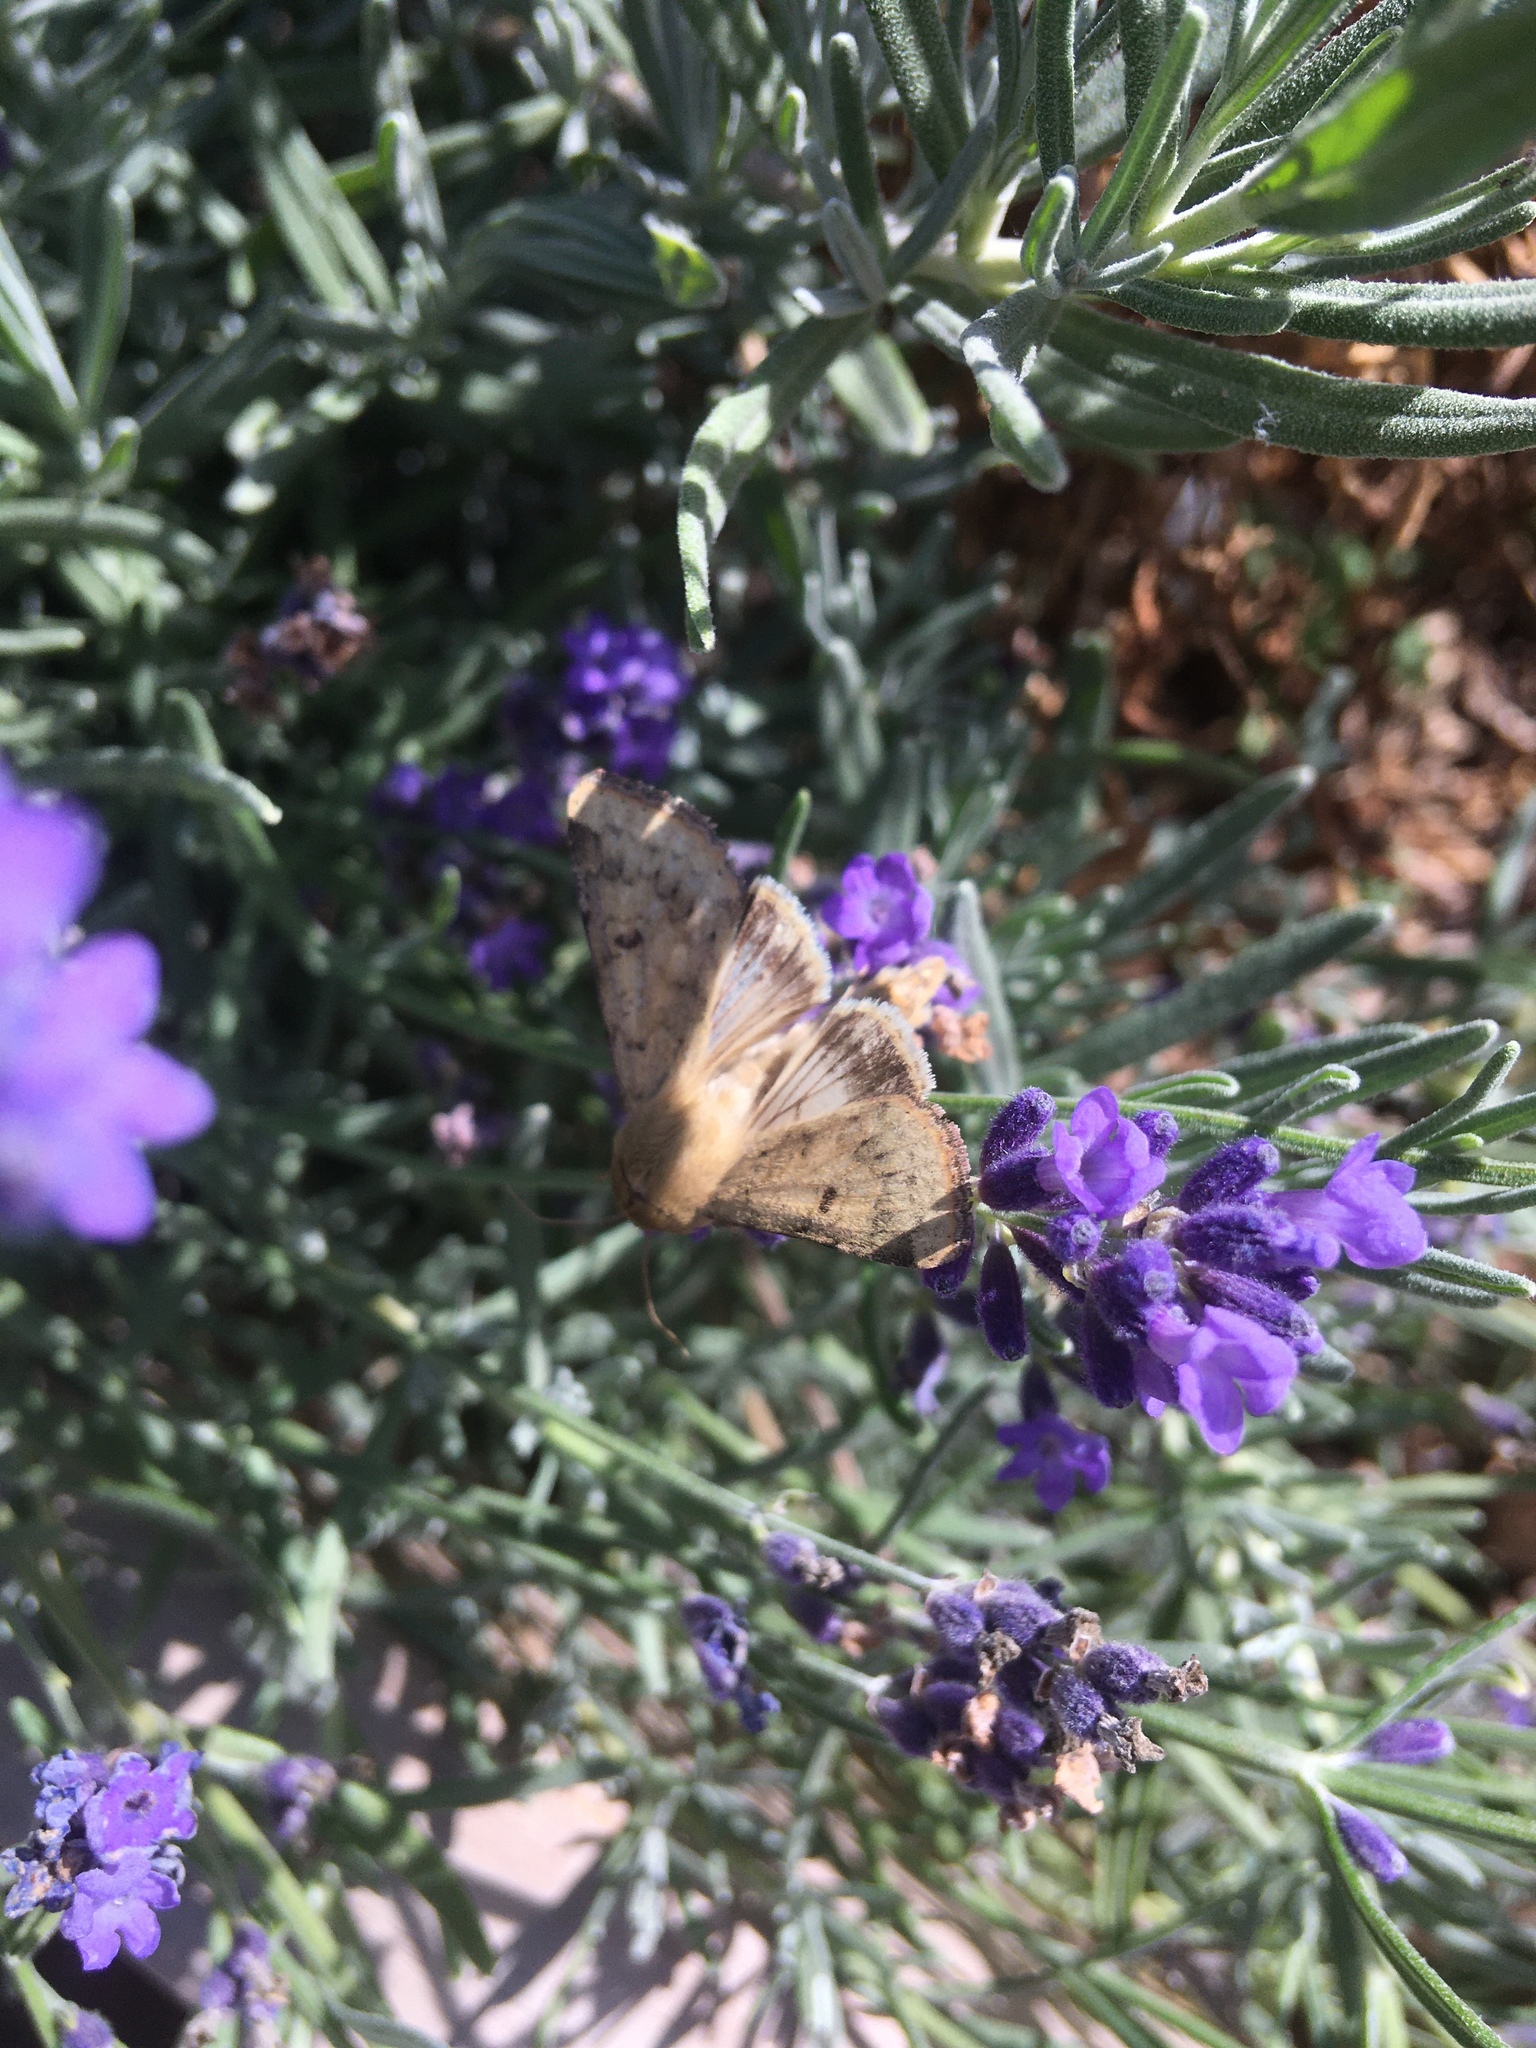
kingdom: Animalia
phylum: Arthropoda
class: Insecta
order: Lepidoptera
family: Noctuidae
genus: Helicoverpa
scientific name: Helicoverpa zea
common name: Bollworm
